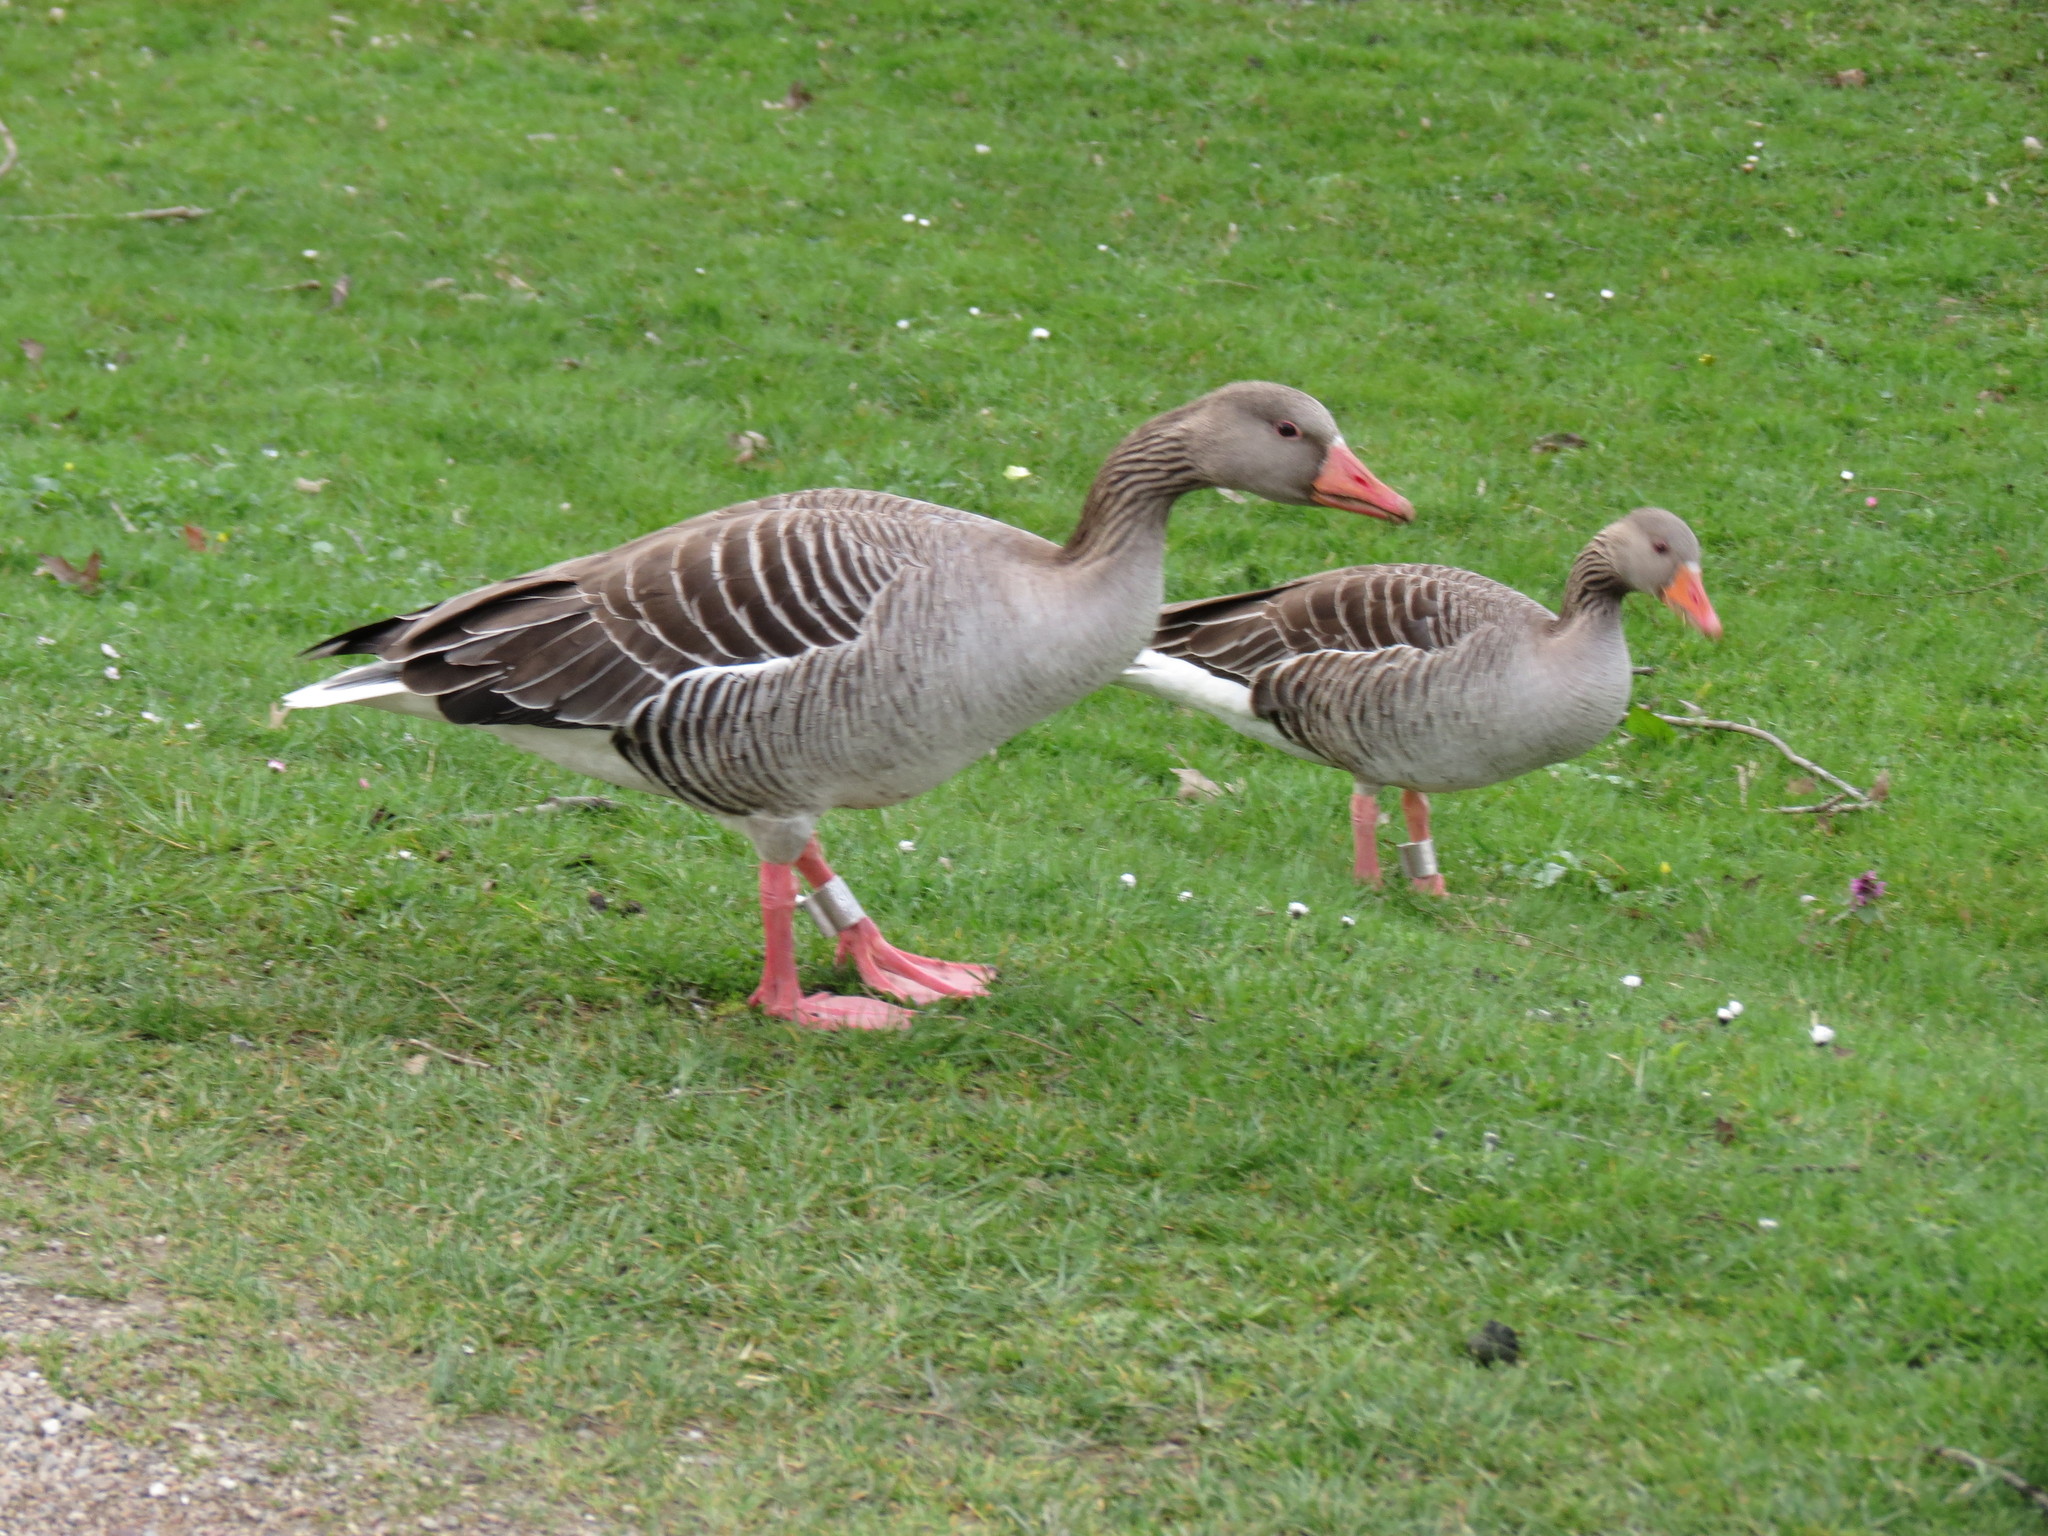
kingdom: Animalia
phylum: Chordata
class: Aves
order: Anseriformes
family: Anatidae
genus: Anser
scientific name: Anser anser
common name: Greylag goose
